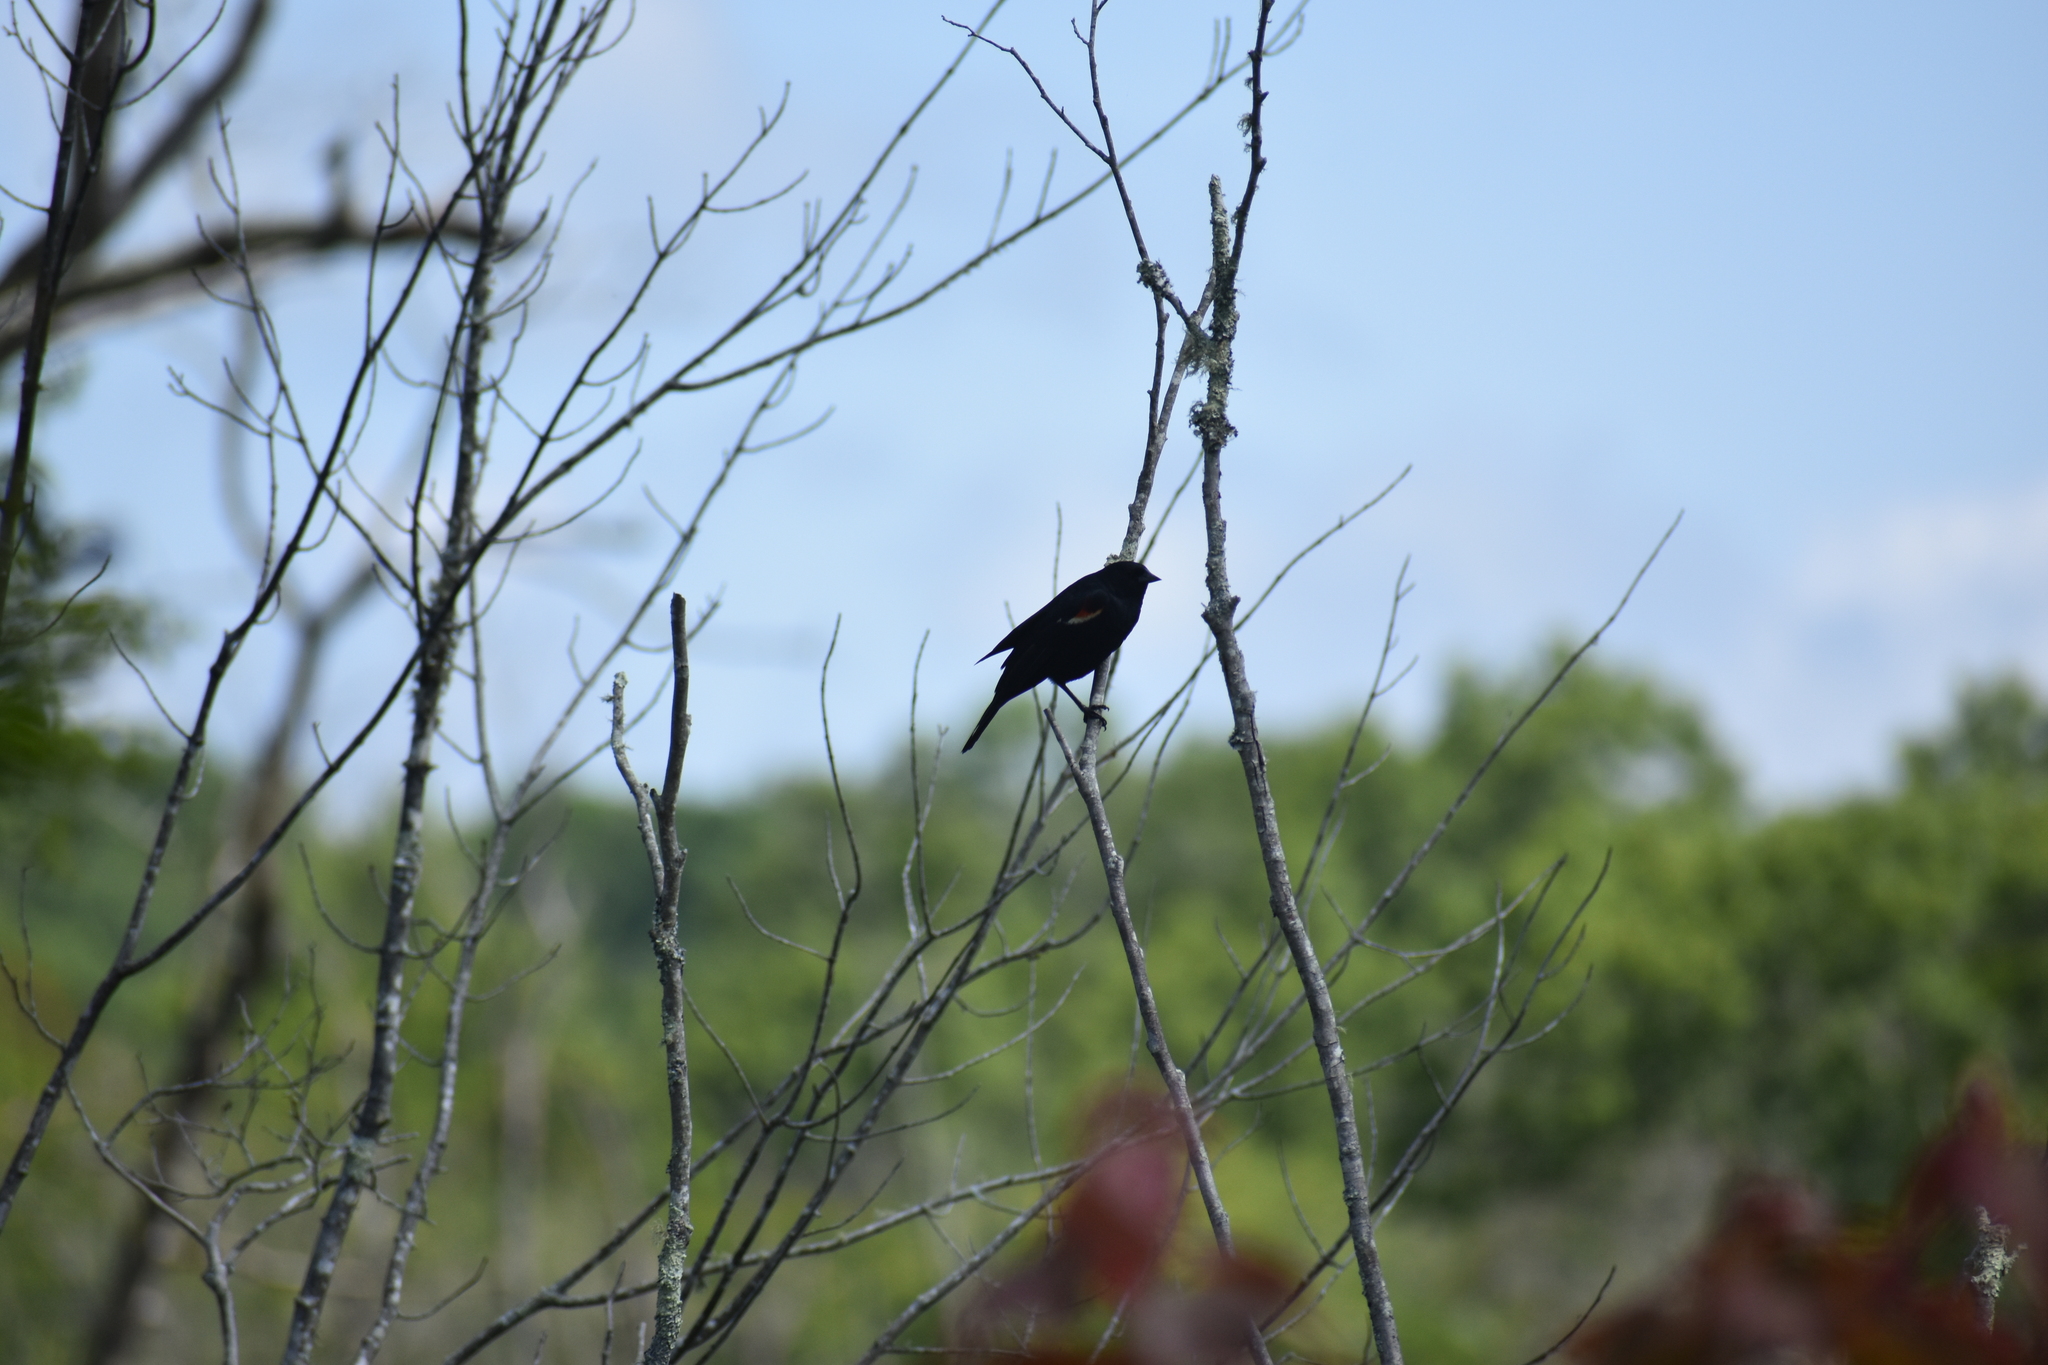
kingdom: Animalia
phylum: Chordata
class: Aves
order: Passeriformes
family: Icteridae
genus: Agelaius
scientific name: Agelaius phoeniceus
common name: Red-winged blackbird
